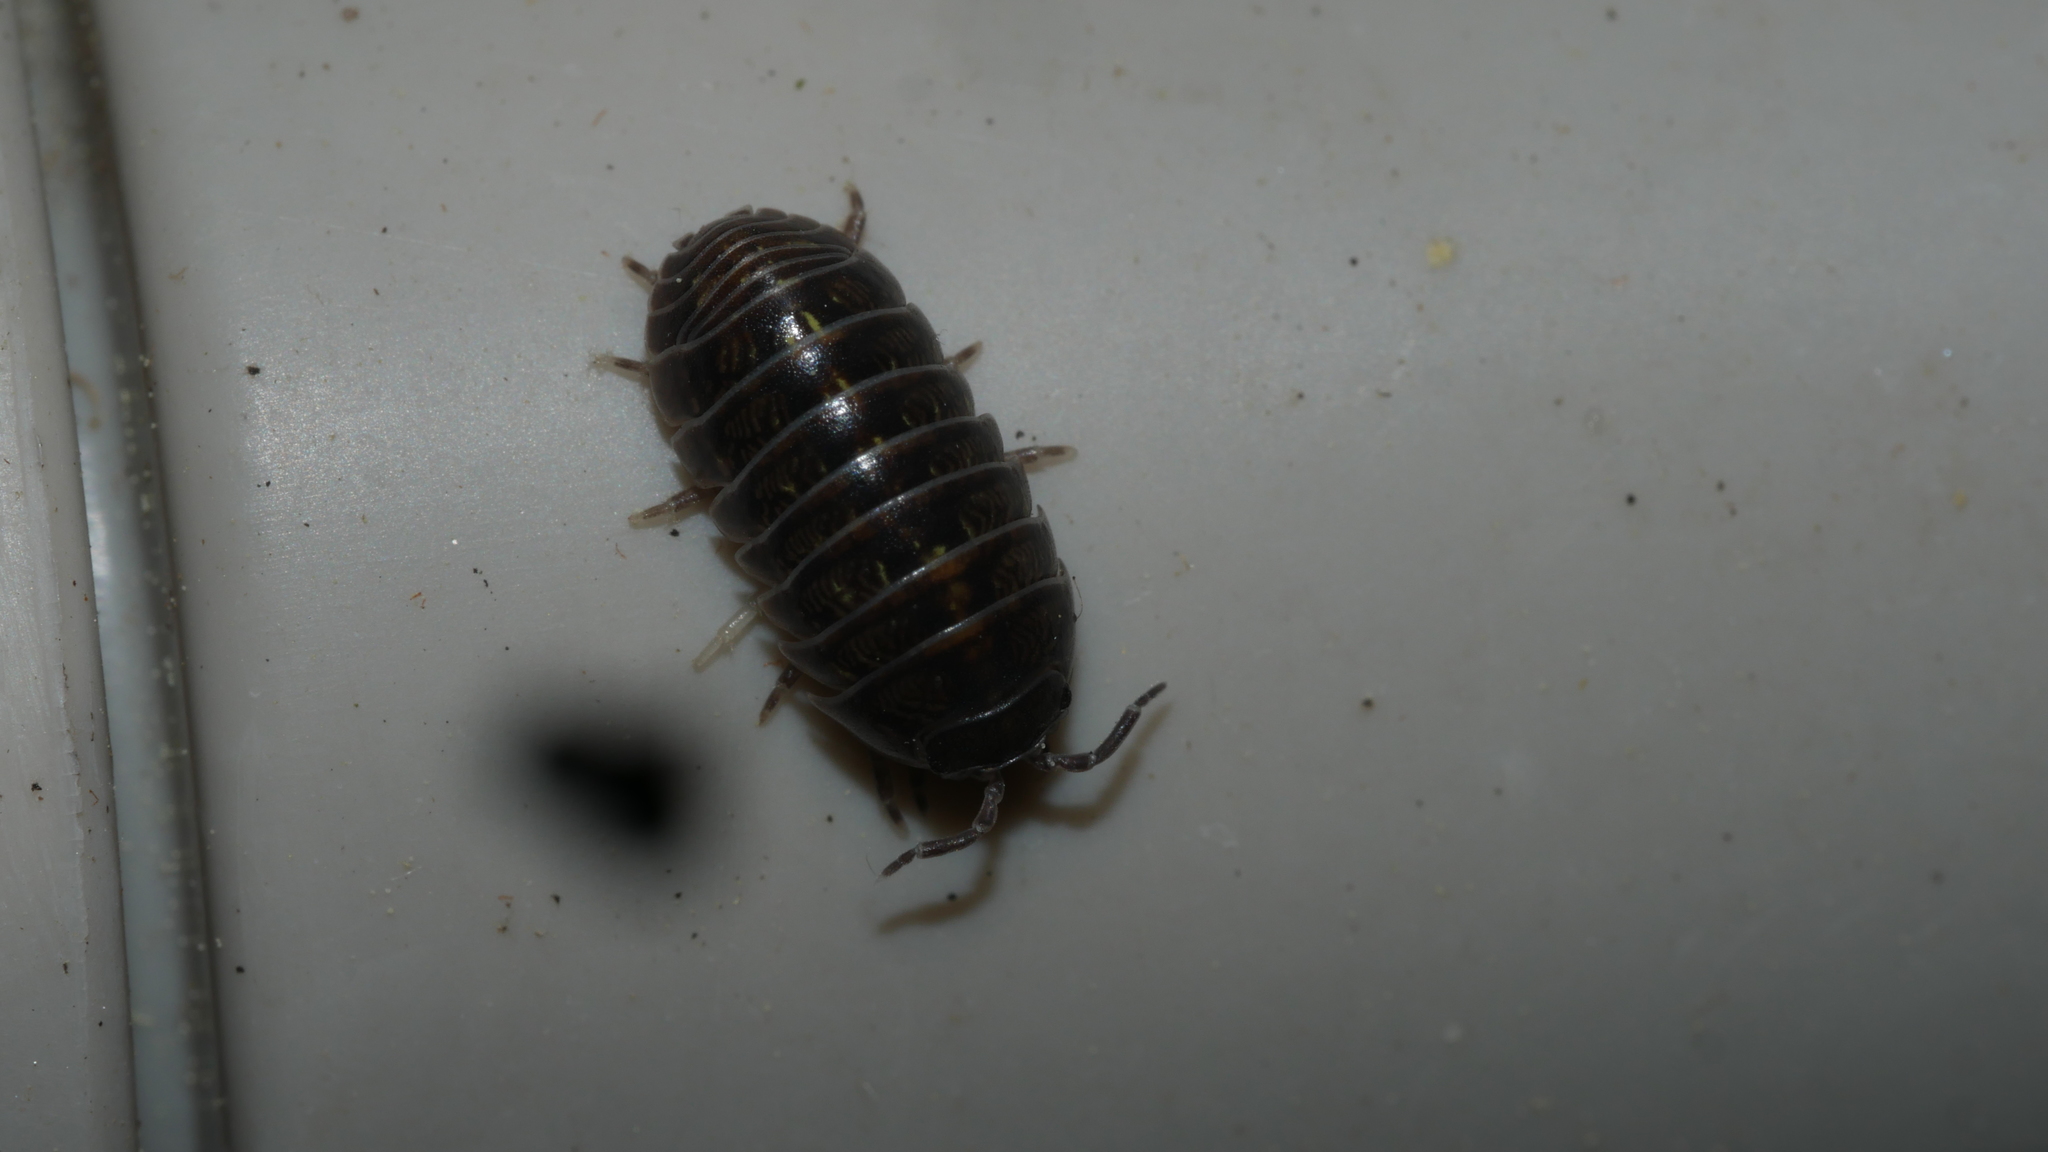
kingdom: Animalia
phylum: Arthropoda
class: Malacostraca
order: Isopoda
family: Armadillidiidae
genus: Armadillidium
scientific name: Armadillidium vulgare
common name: Common pill woodlouse
